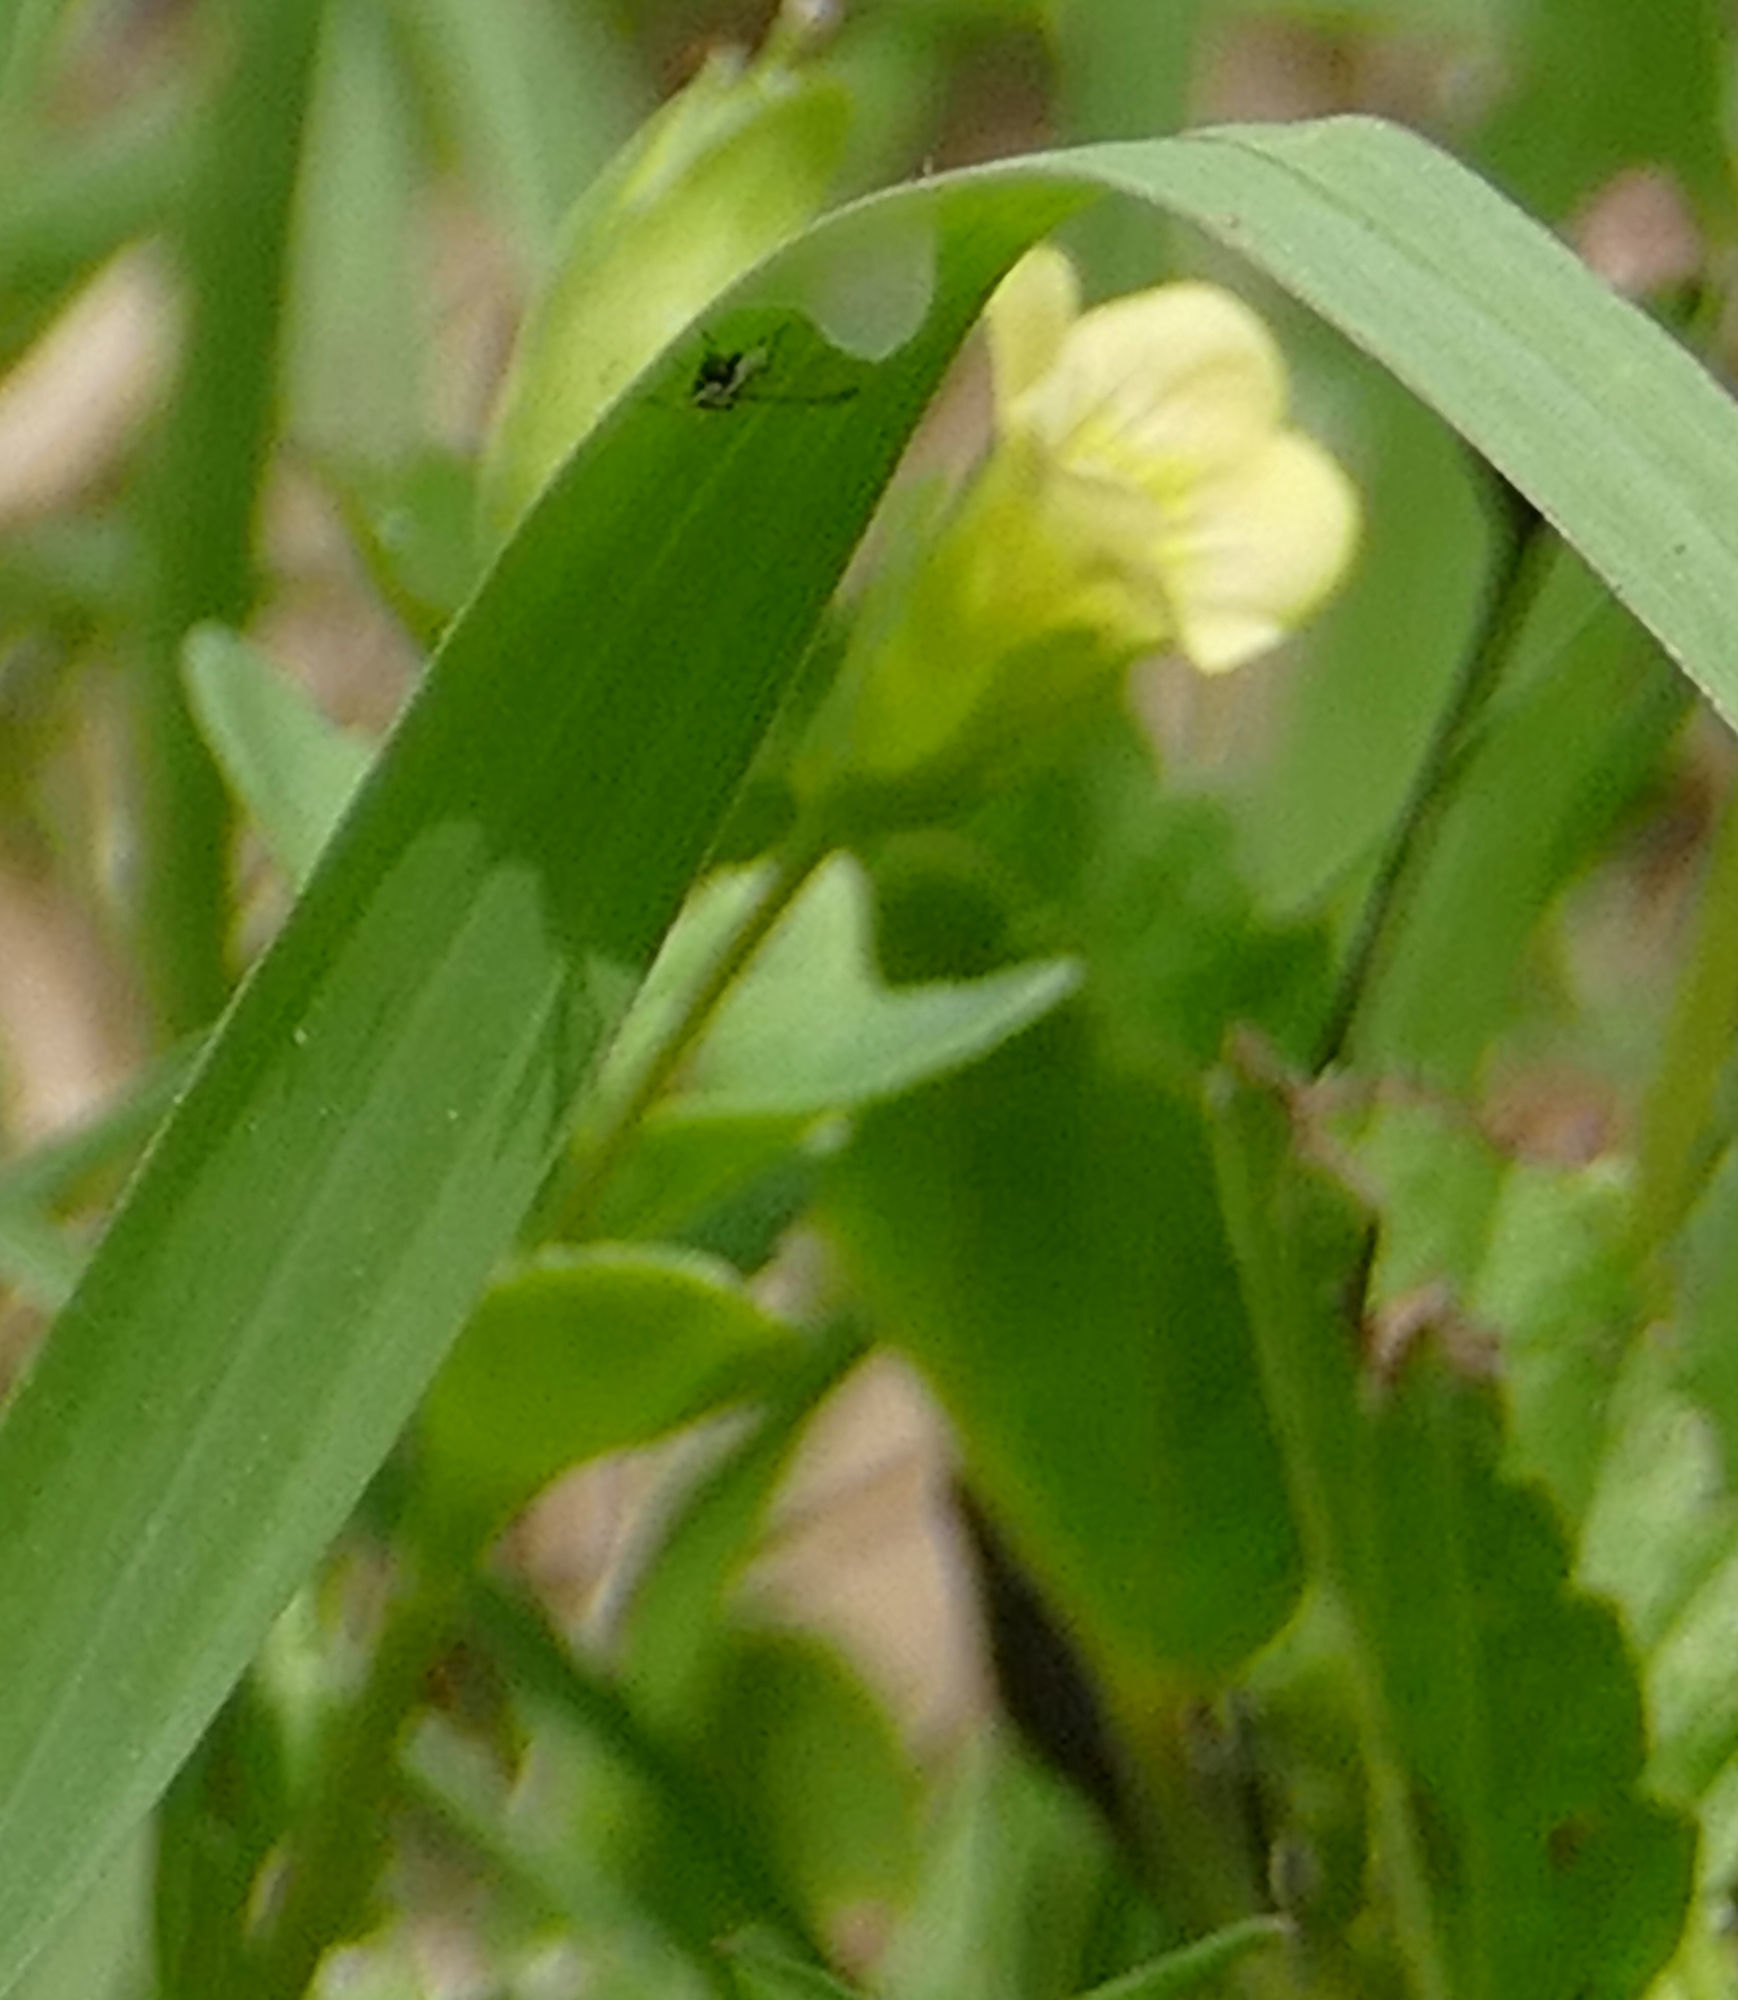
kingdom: Plantae
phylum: Tracheophyta
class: Magnoliopsida
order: Lamiales
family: Plantaginaceae
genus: Mecardonia
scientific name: Mecardonia procumbens
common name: Baby jump-up
